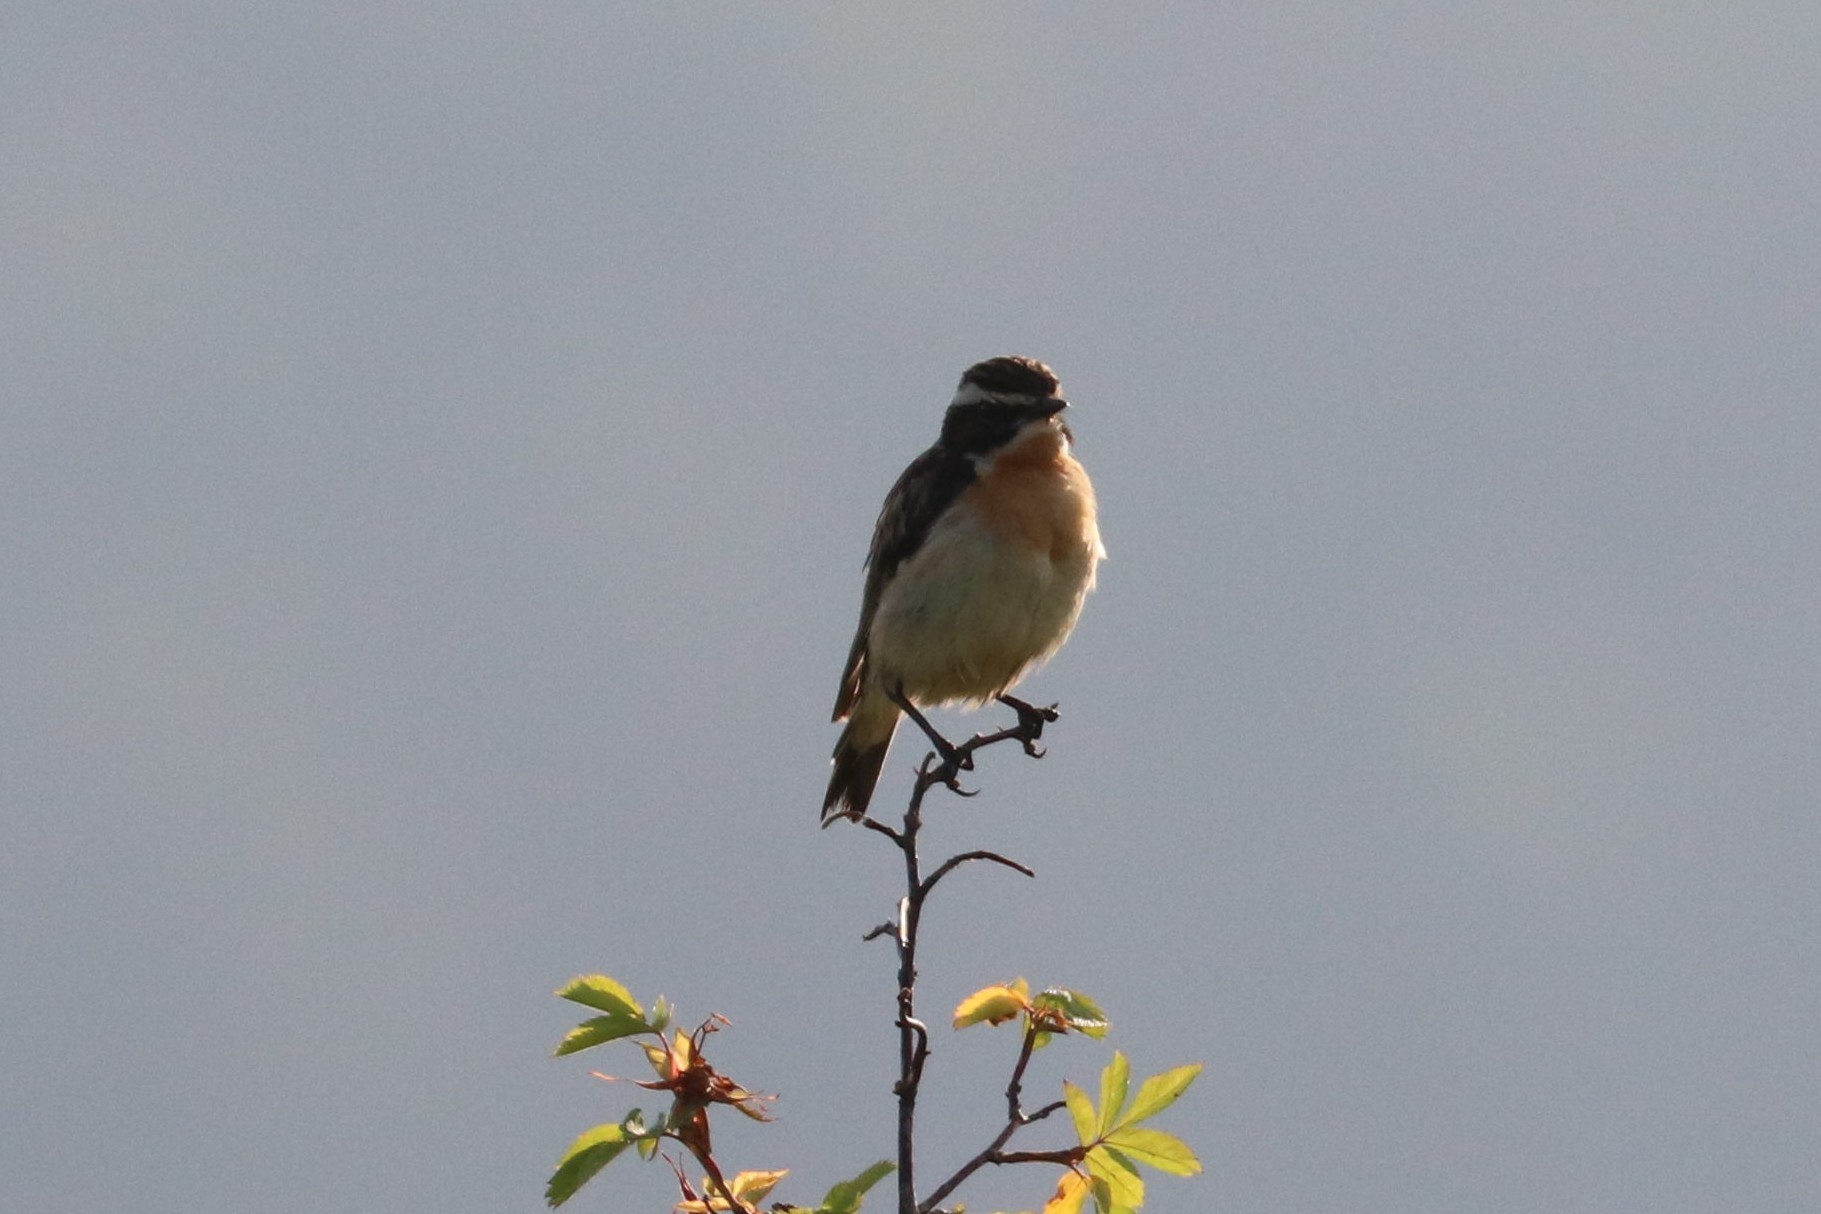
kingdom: Animalia
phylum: Chordata
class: Aves
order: Passeriformes
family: Muscicapidae
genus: Saxicola
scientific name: Saxicola rubetra
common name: Whinchat
